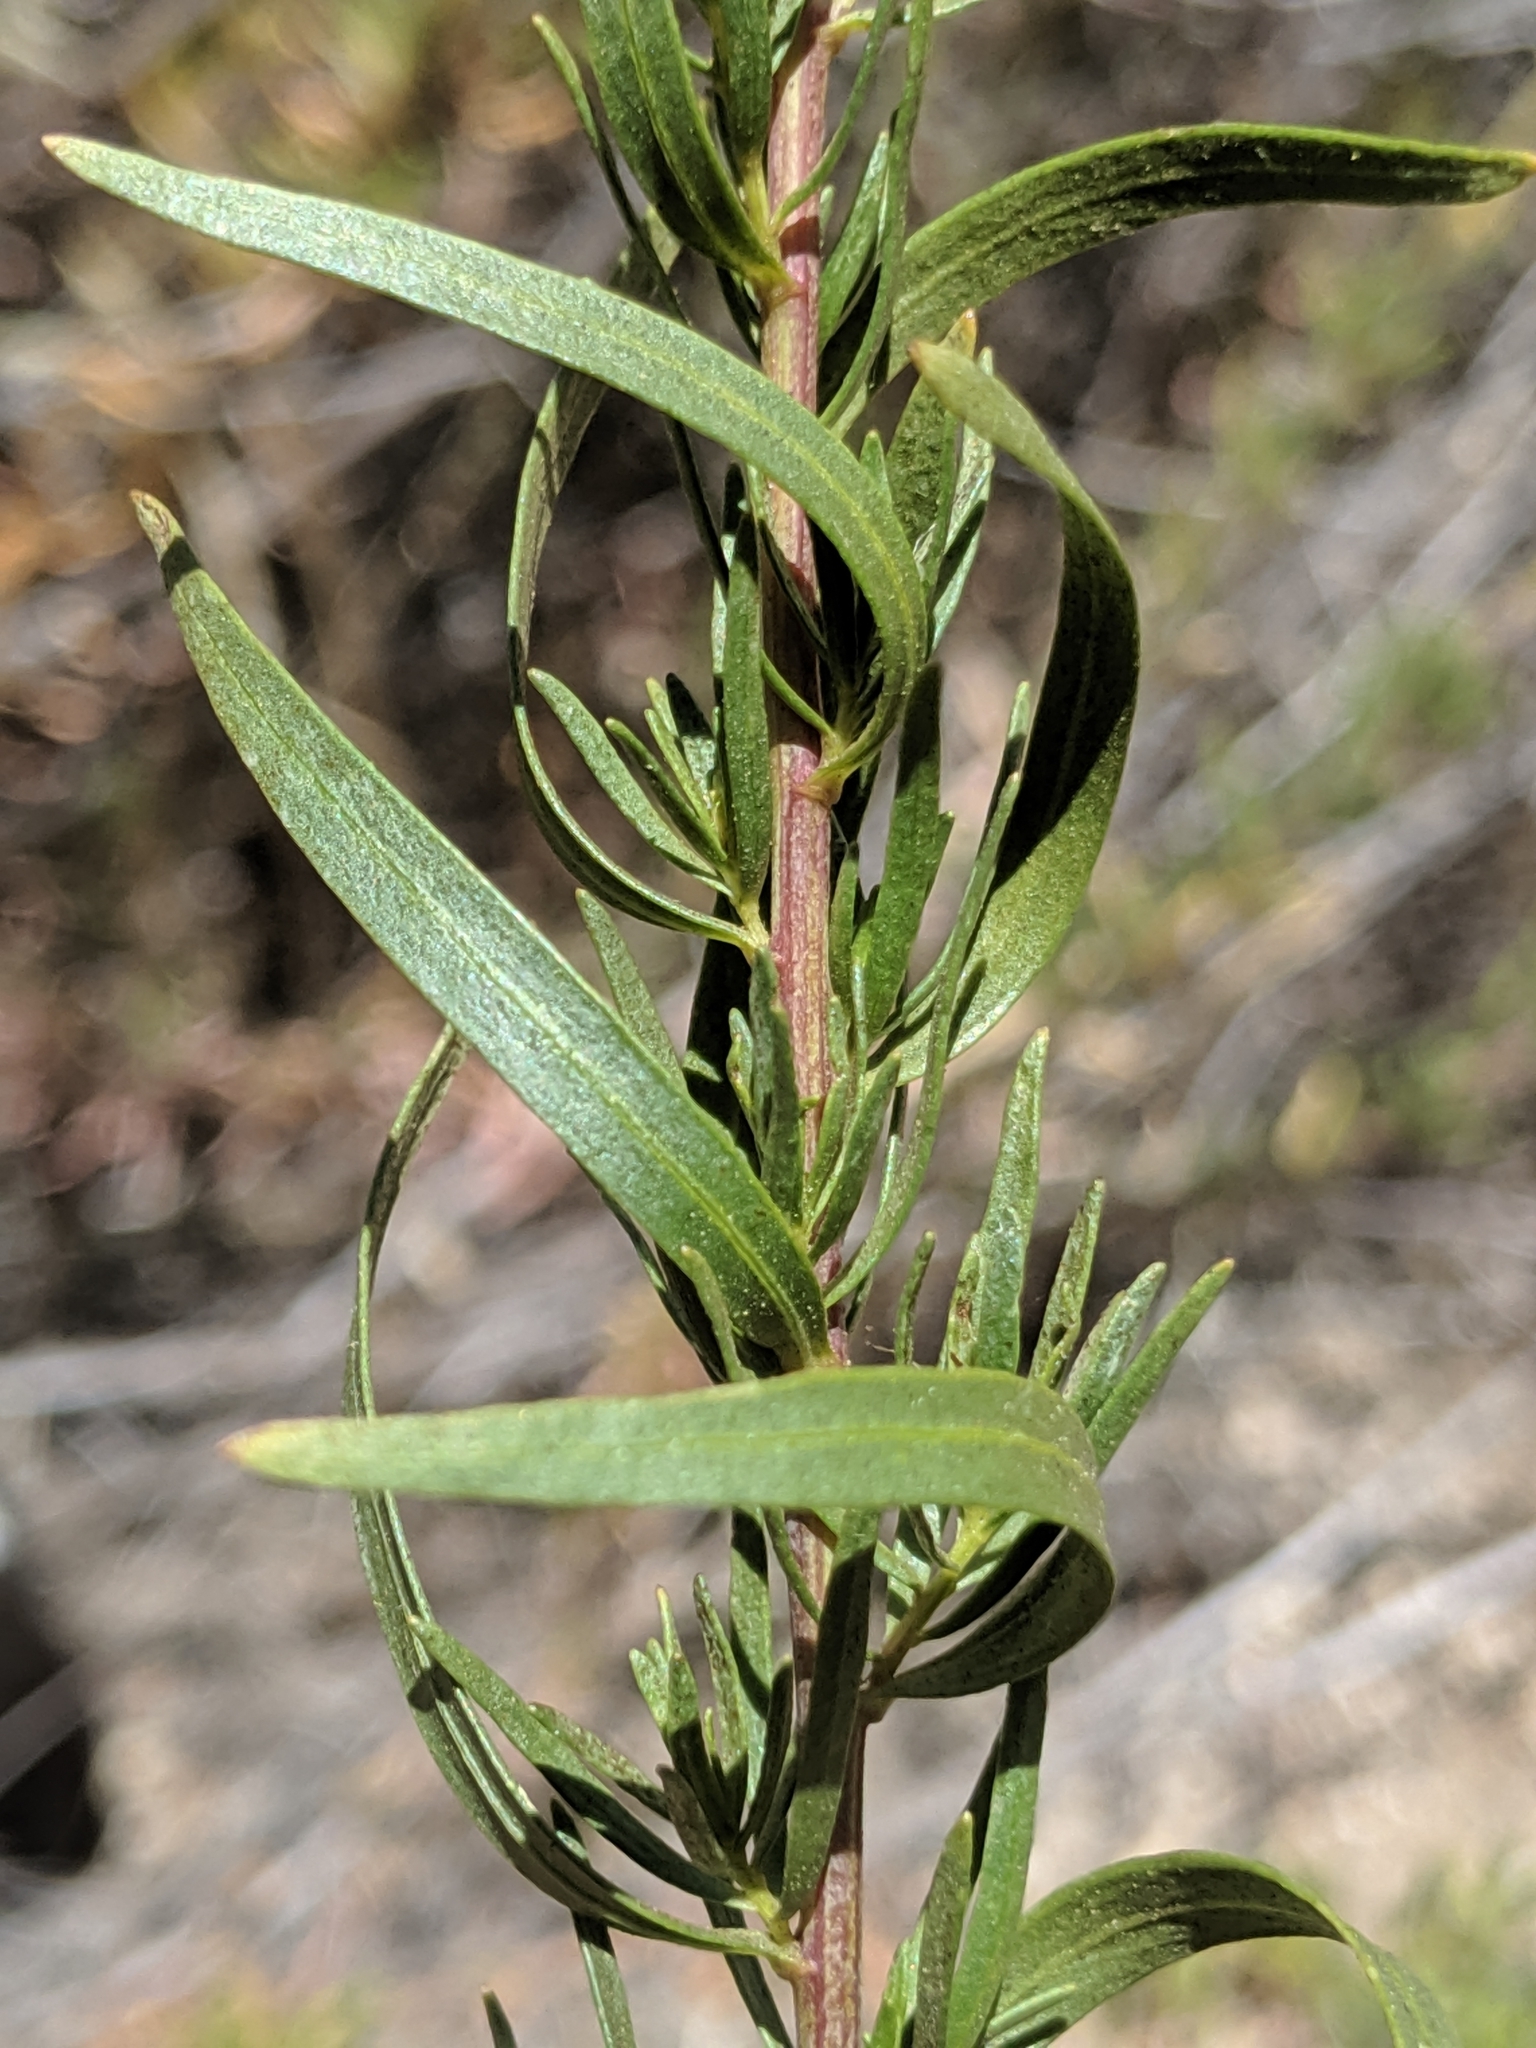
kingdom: Plantae
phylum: Tracheophyta
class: Magnoliopsida
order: Asterales
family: Asteraceae
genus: Artemisia
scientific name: Artemisia dracunculus
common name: Tarragon
